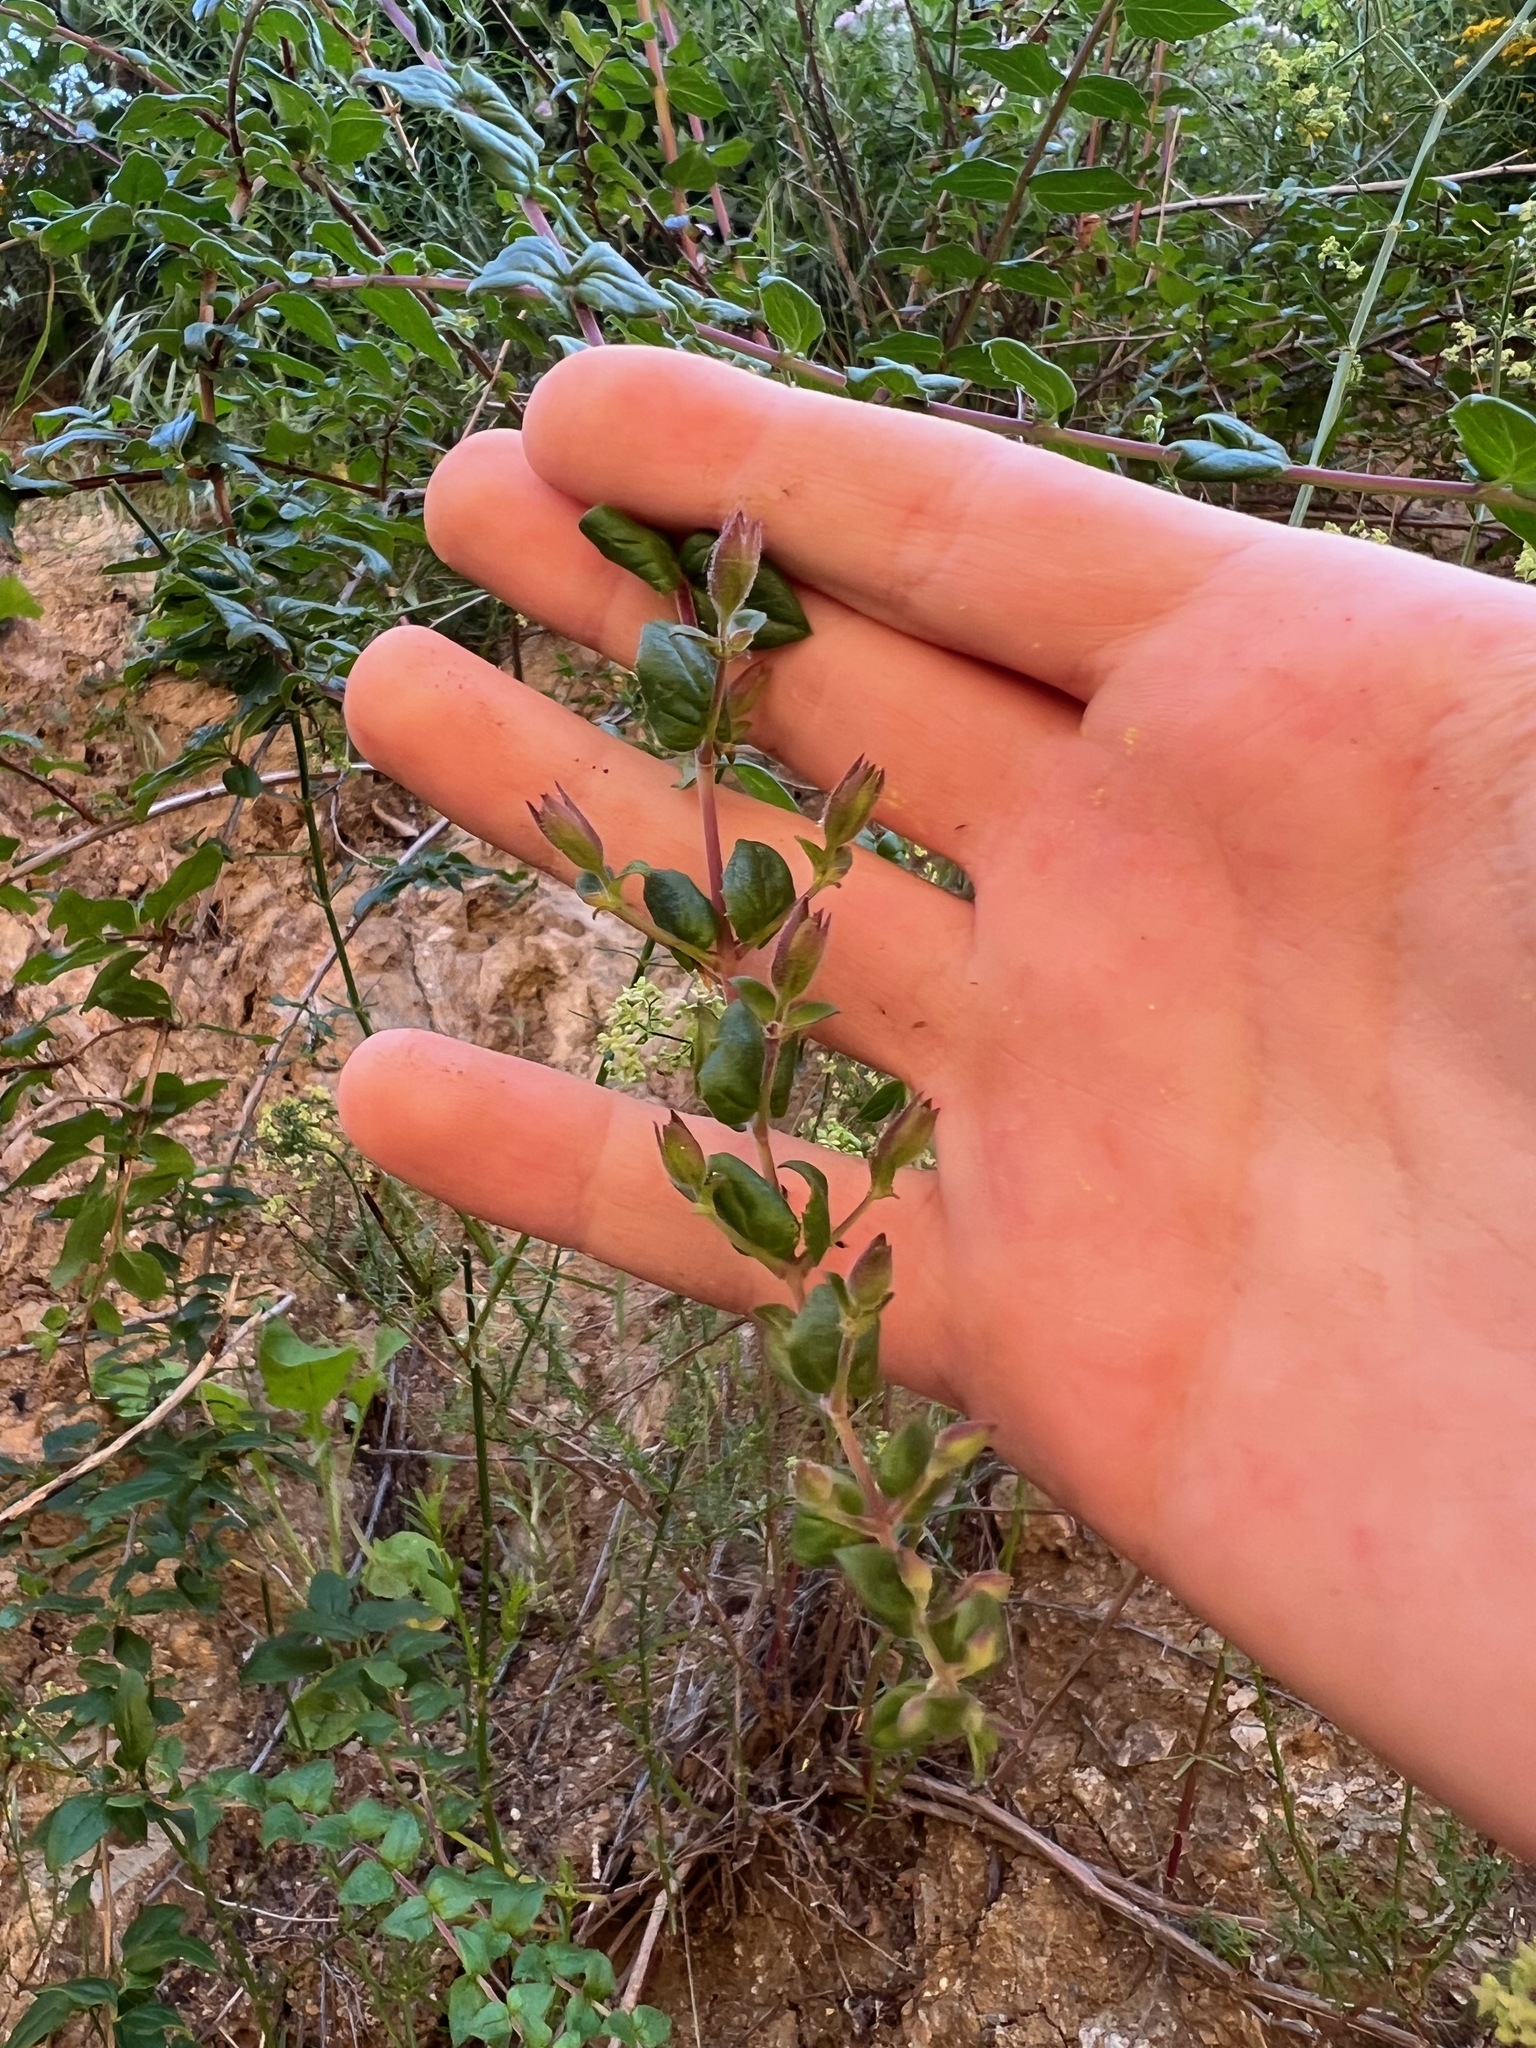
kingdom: Plantae
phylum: Tracheophyta
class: Magnoliopsida
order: Lamiales
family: Plantaginaceae
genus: Keckiella
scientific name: Keckiella cordifolia
